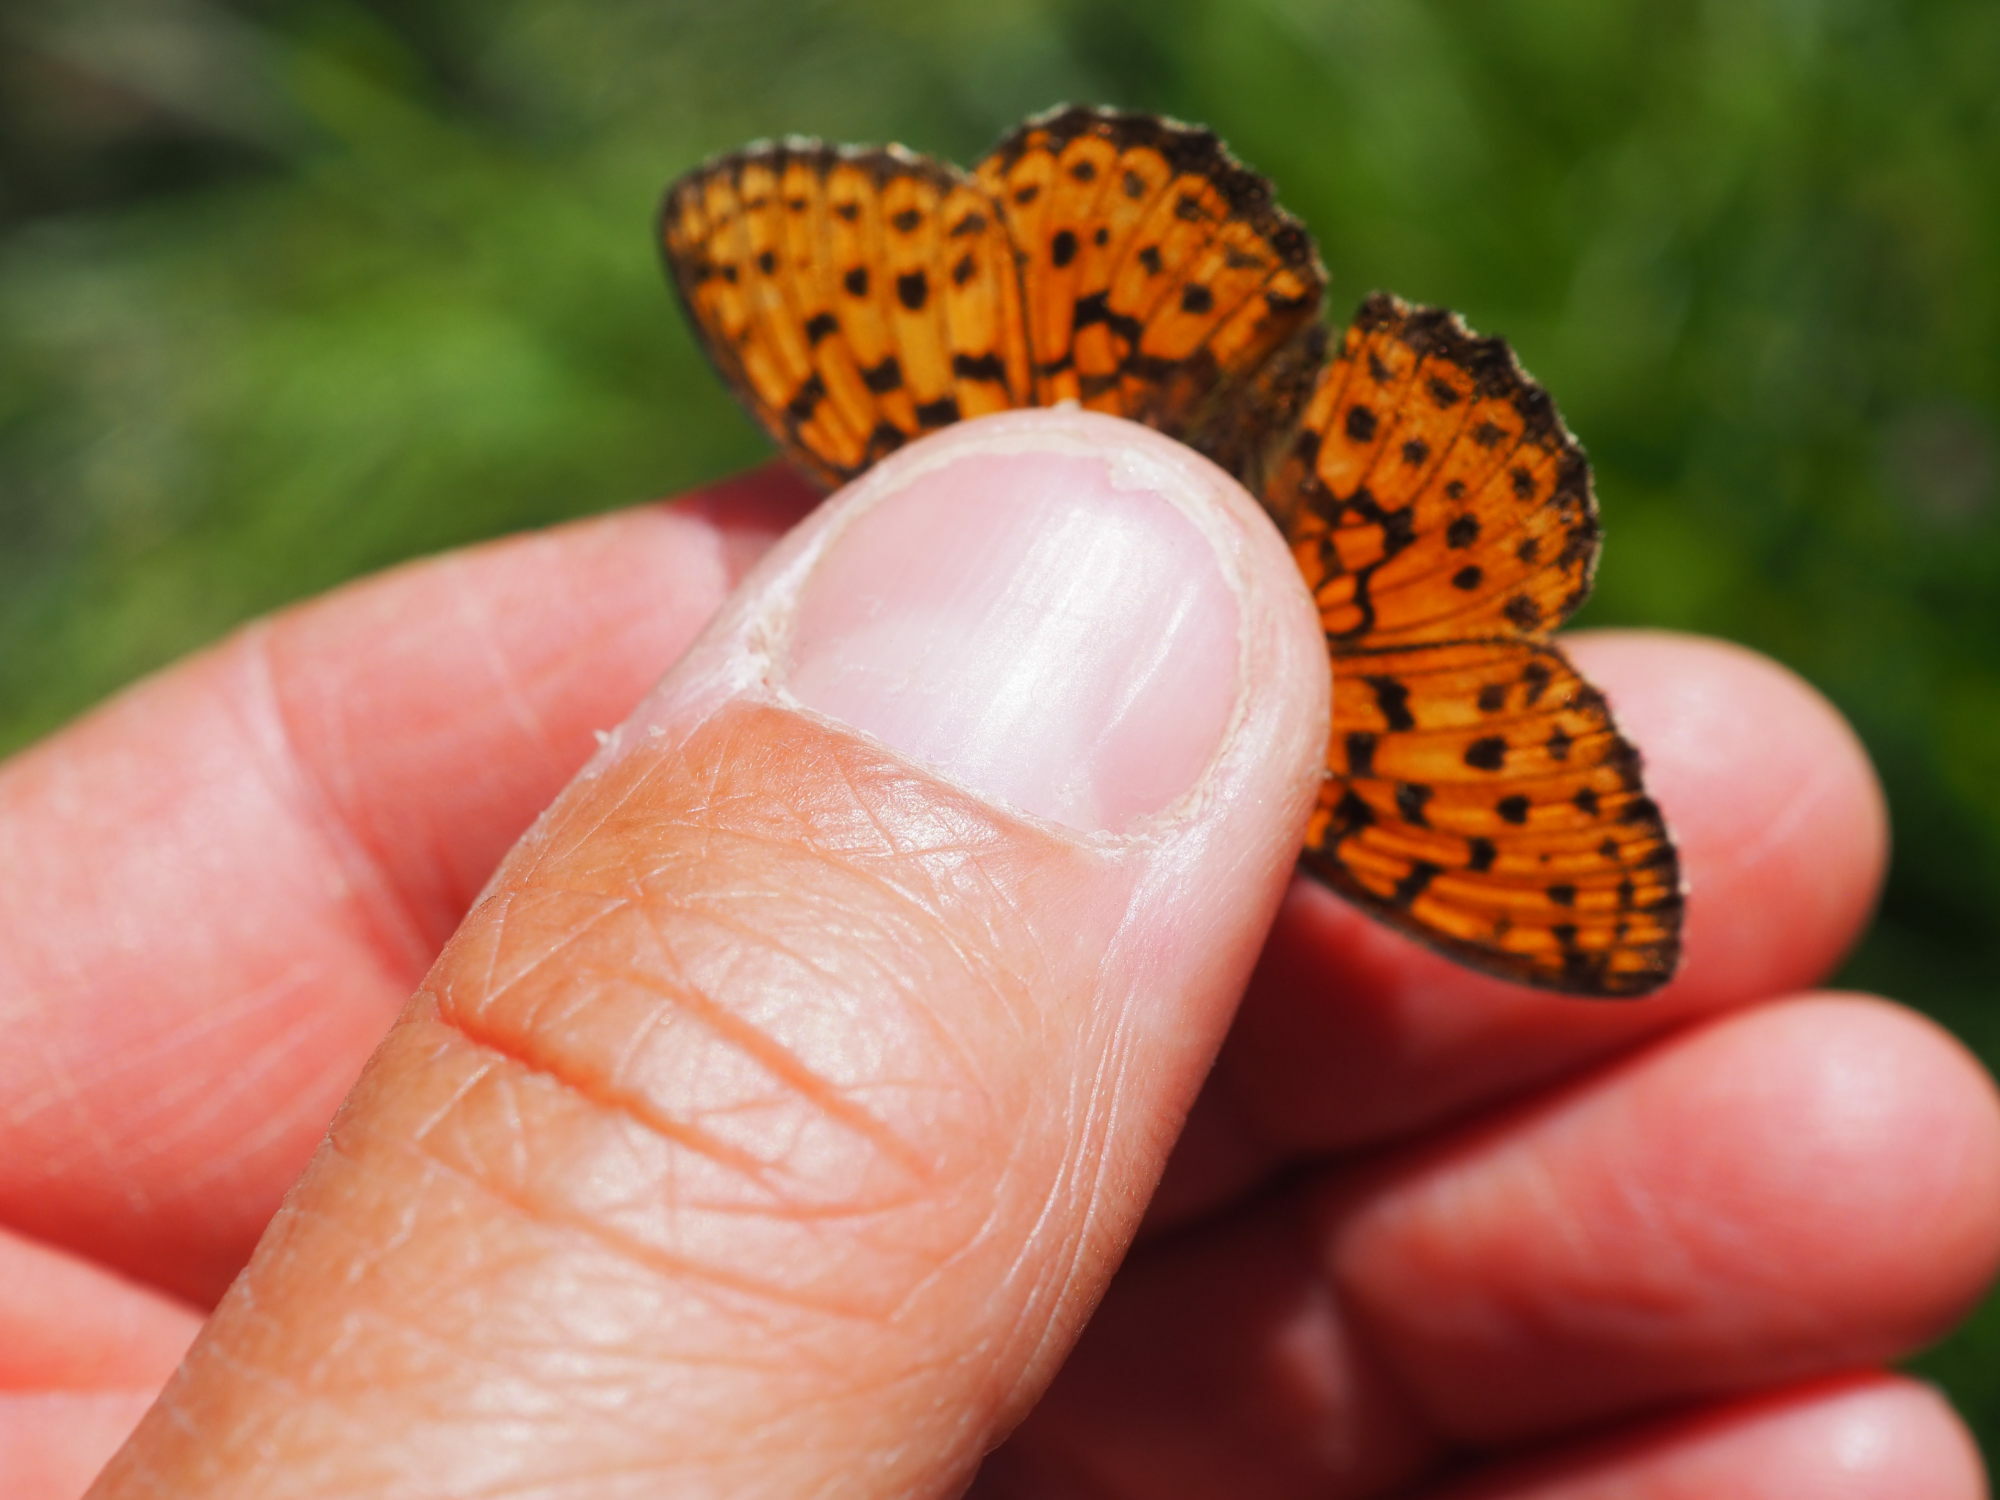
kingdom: Animalia
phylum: Arthropoda
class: Insecta
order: Lepidoptera
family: Nymphalidae
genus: Brenthis
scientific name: Brenthis ino
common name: Lesser marbled fritillary
